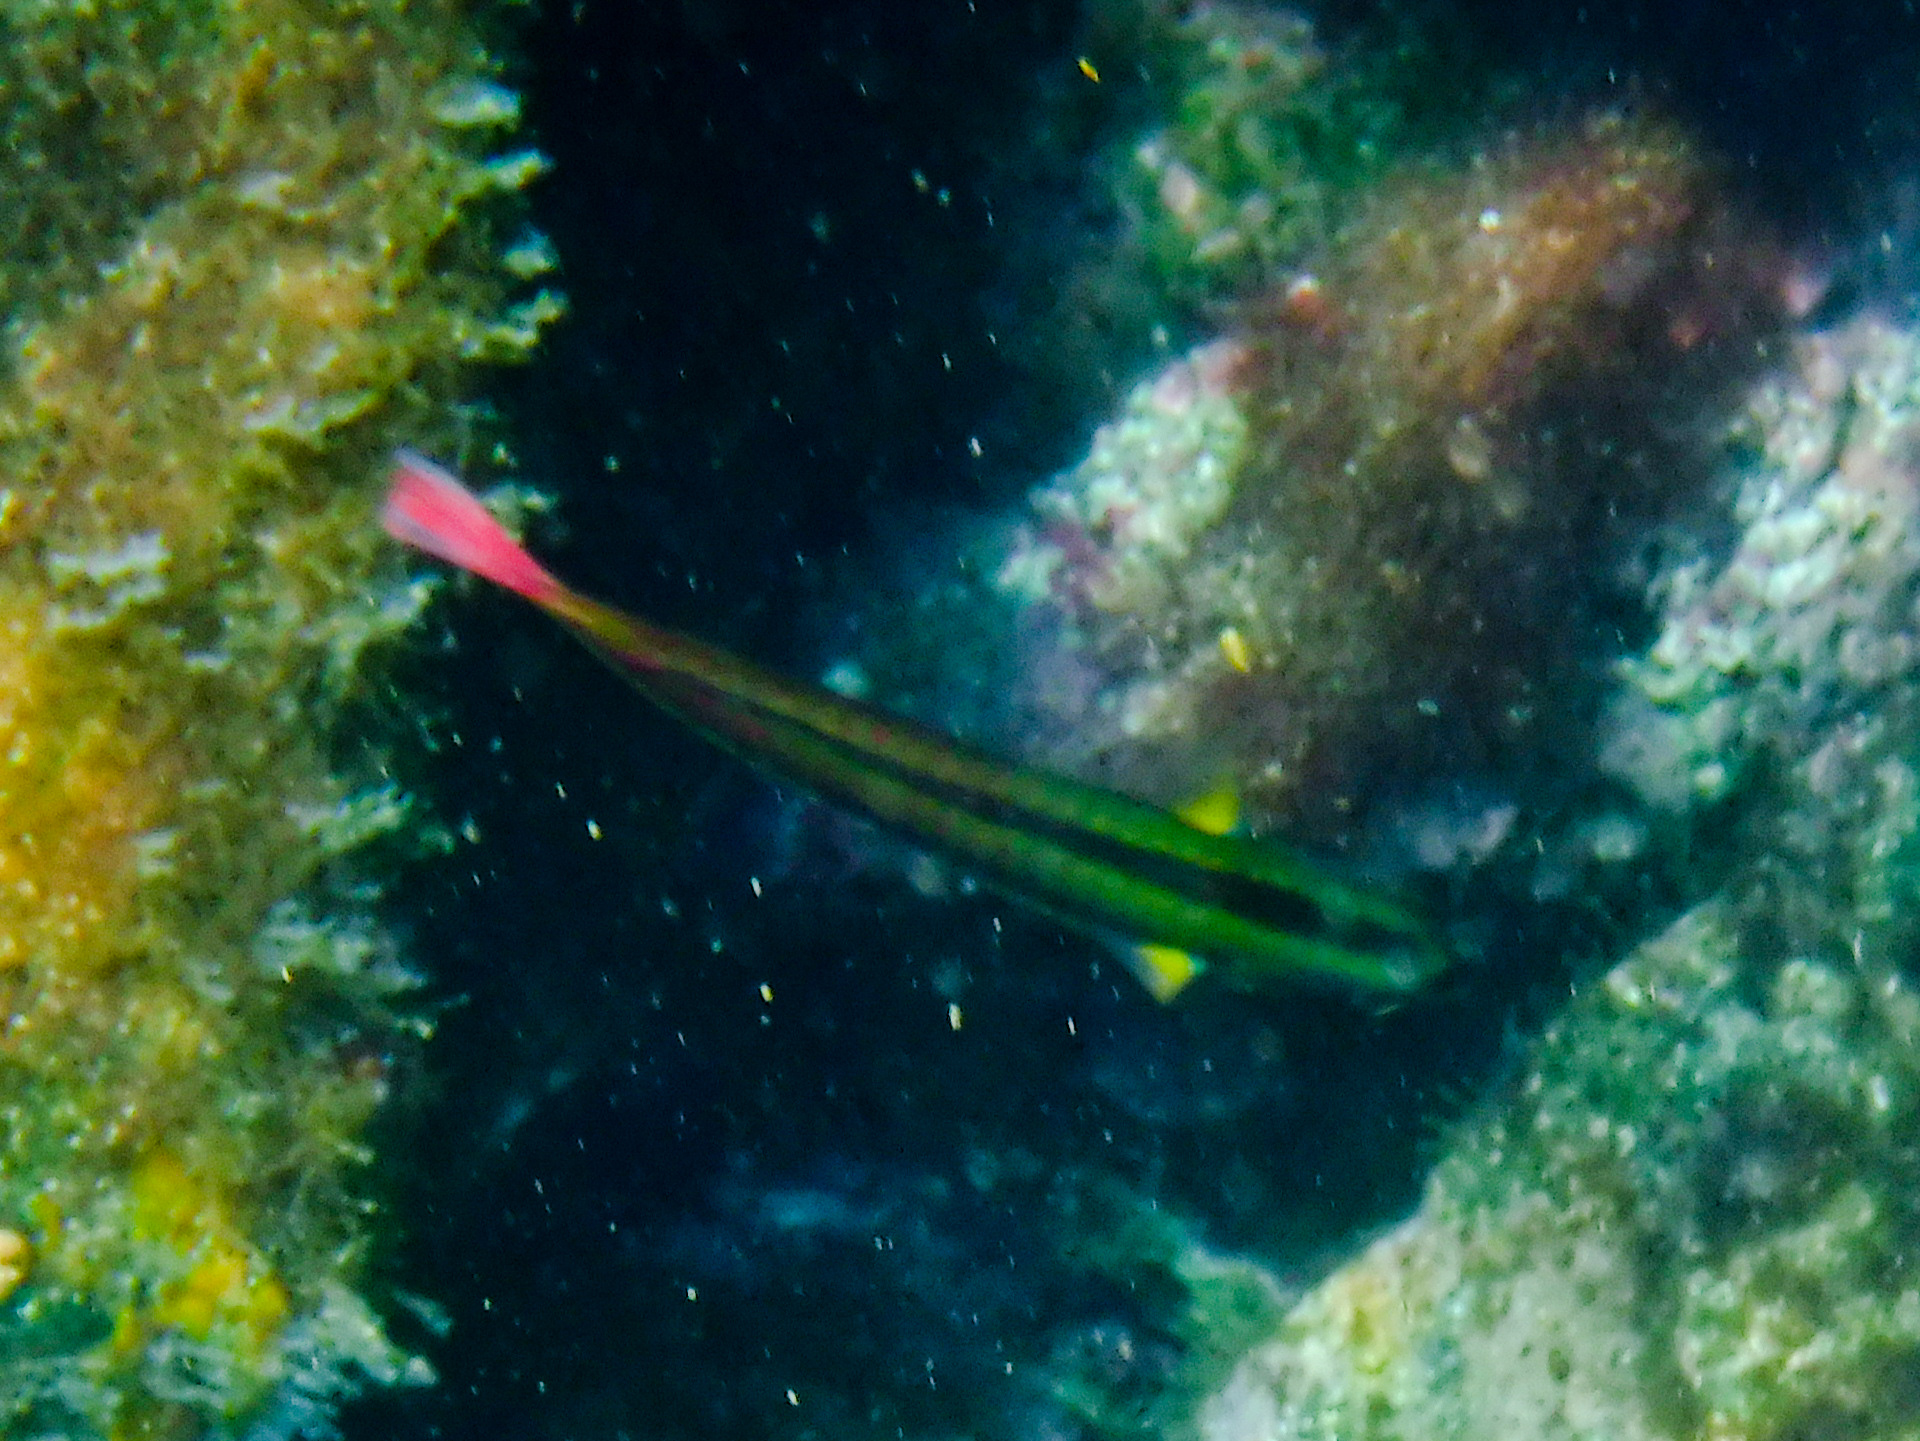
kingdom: Animalia
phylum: Chordata
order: Perciformes
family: Labridae
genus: Thalassoma
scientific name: Thalassoma lucasanum
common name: Cortez rainbow wrasse
